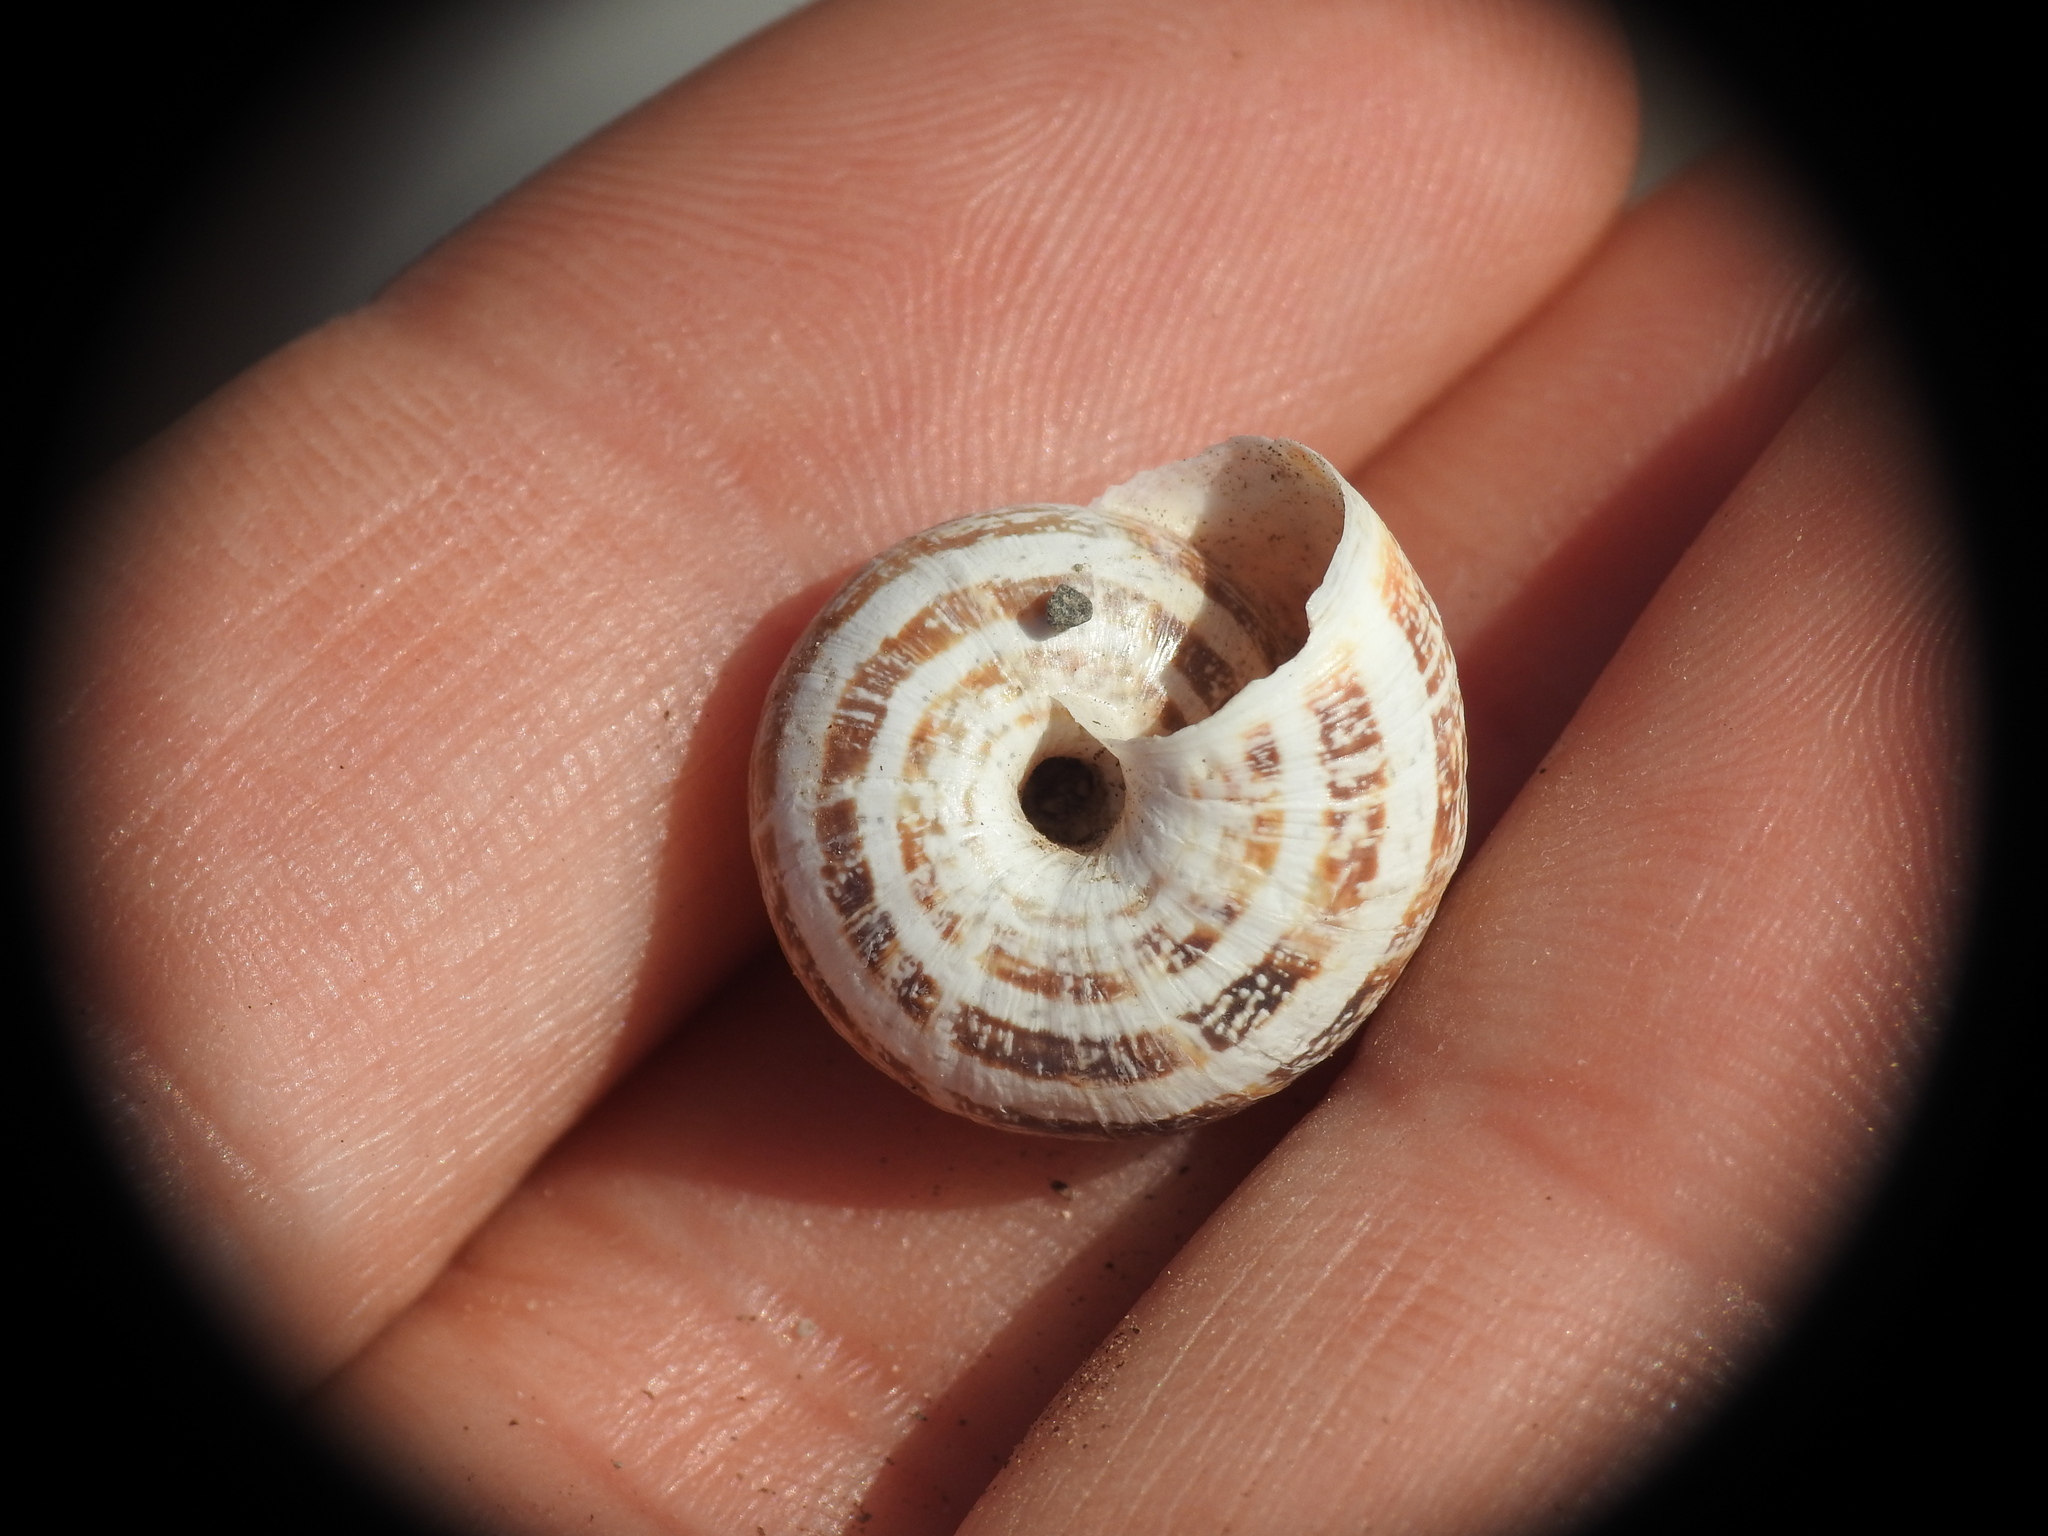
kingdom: Animalia
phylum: Mollusca
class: Gastropoda
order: Stylommatophora
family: Geomitridae
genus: Xerocrassa
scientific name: Xerocrassa cretica
